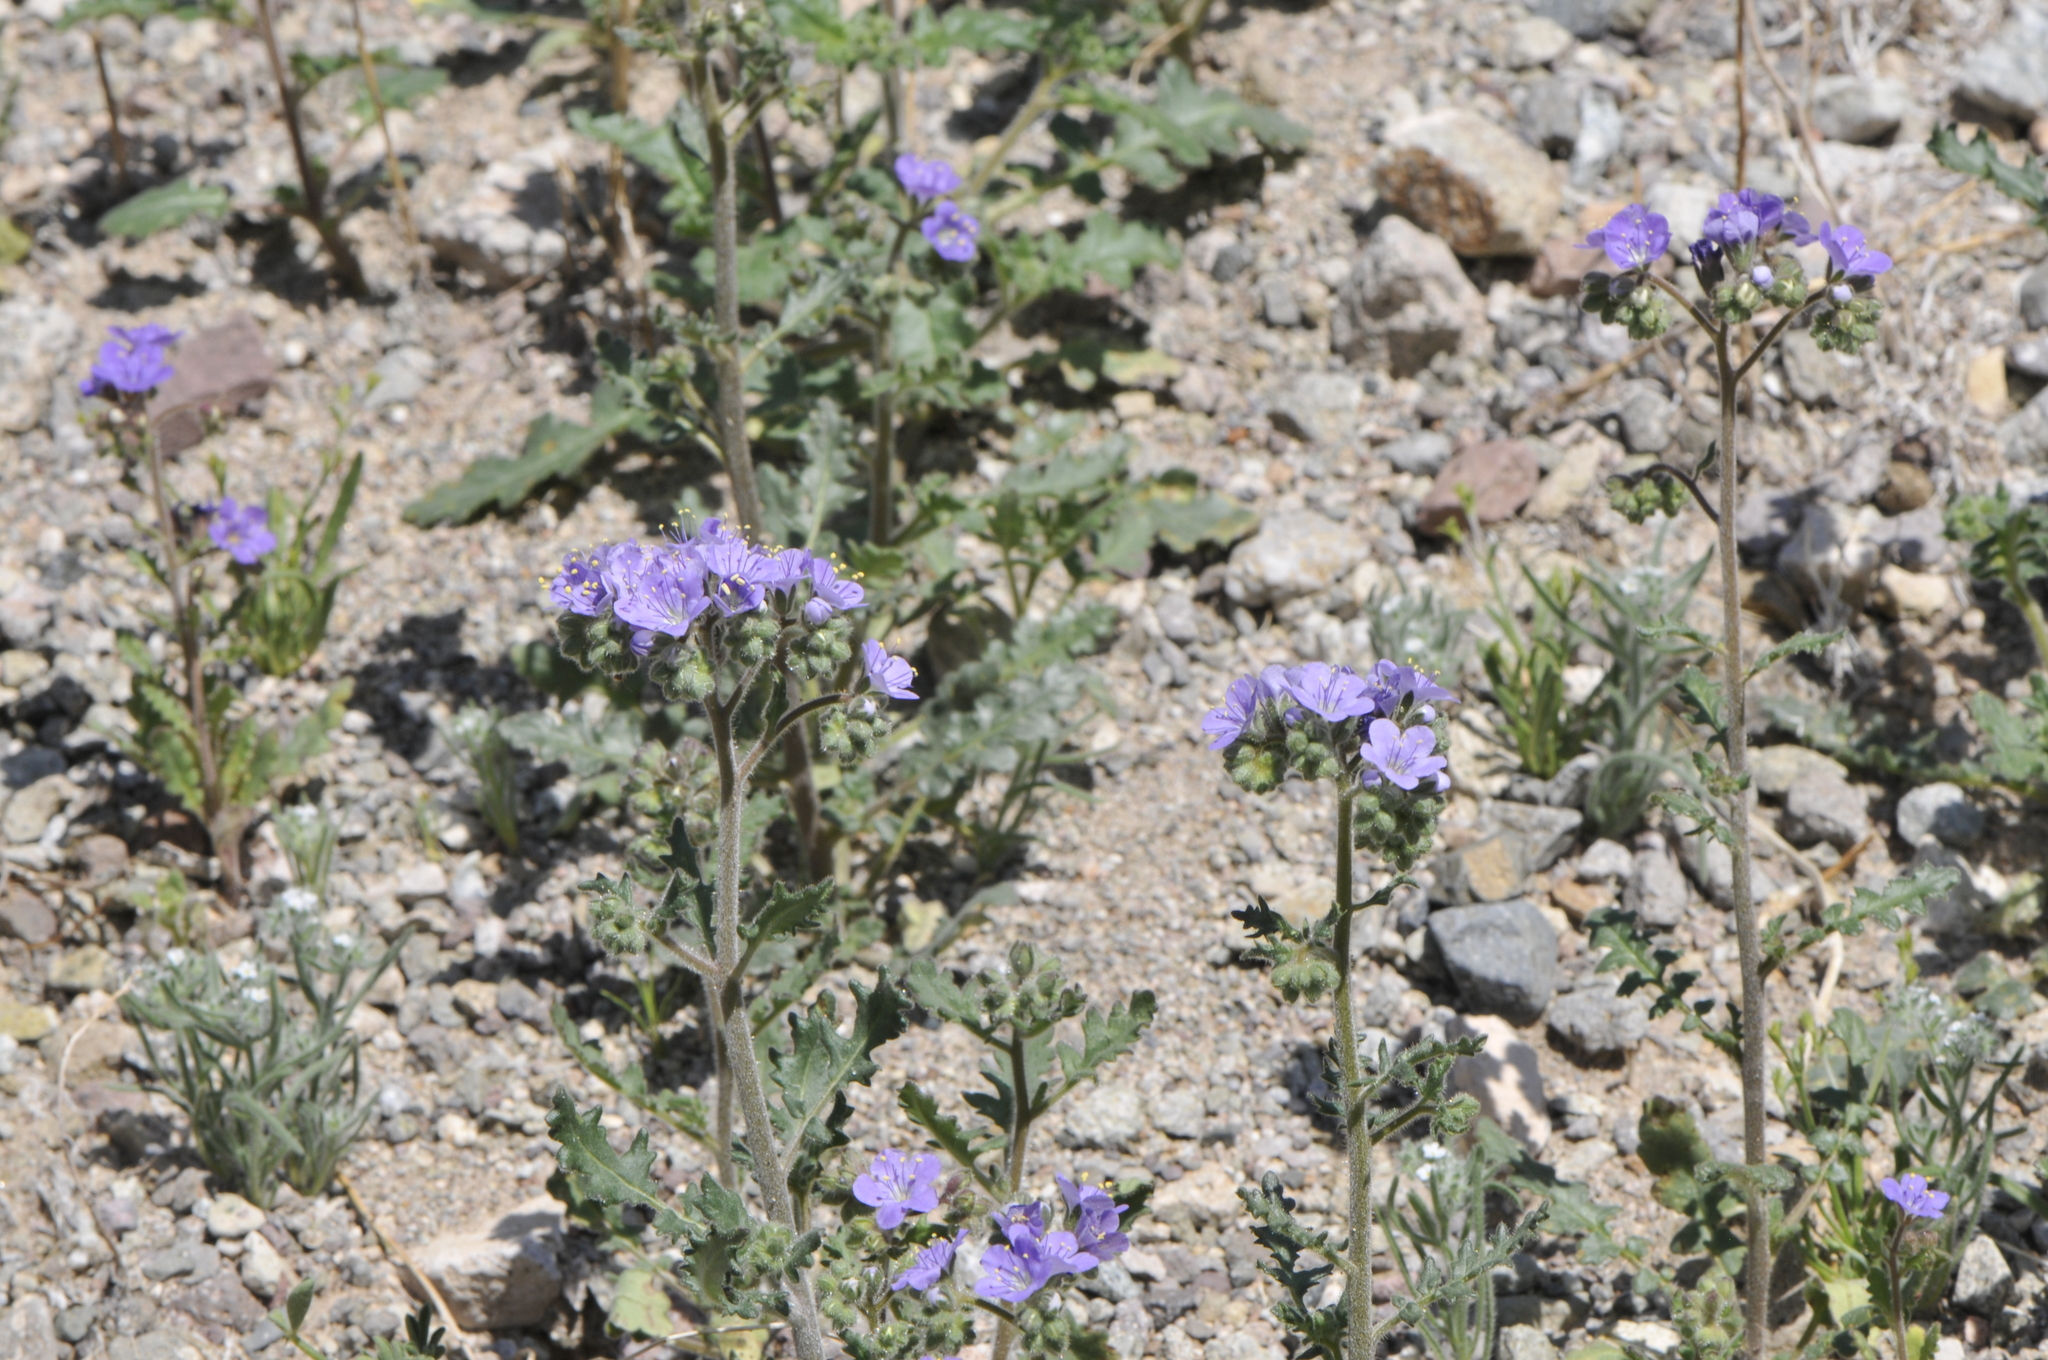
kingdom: Plantae
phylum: Tracheophyta
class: Magnoliopsida
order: Boraginales
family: Hydrophyllaceae
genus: Phacelia
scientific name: Phacelia crenulata
